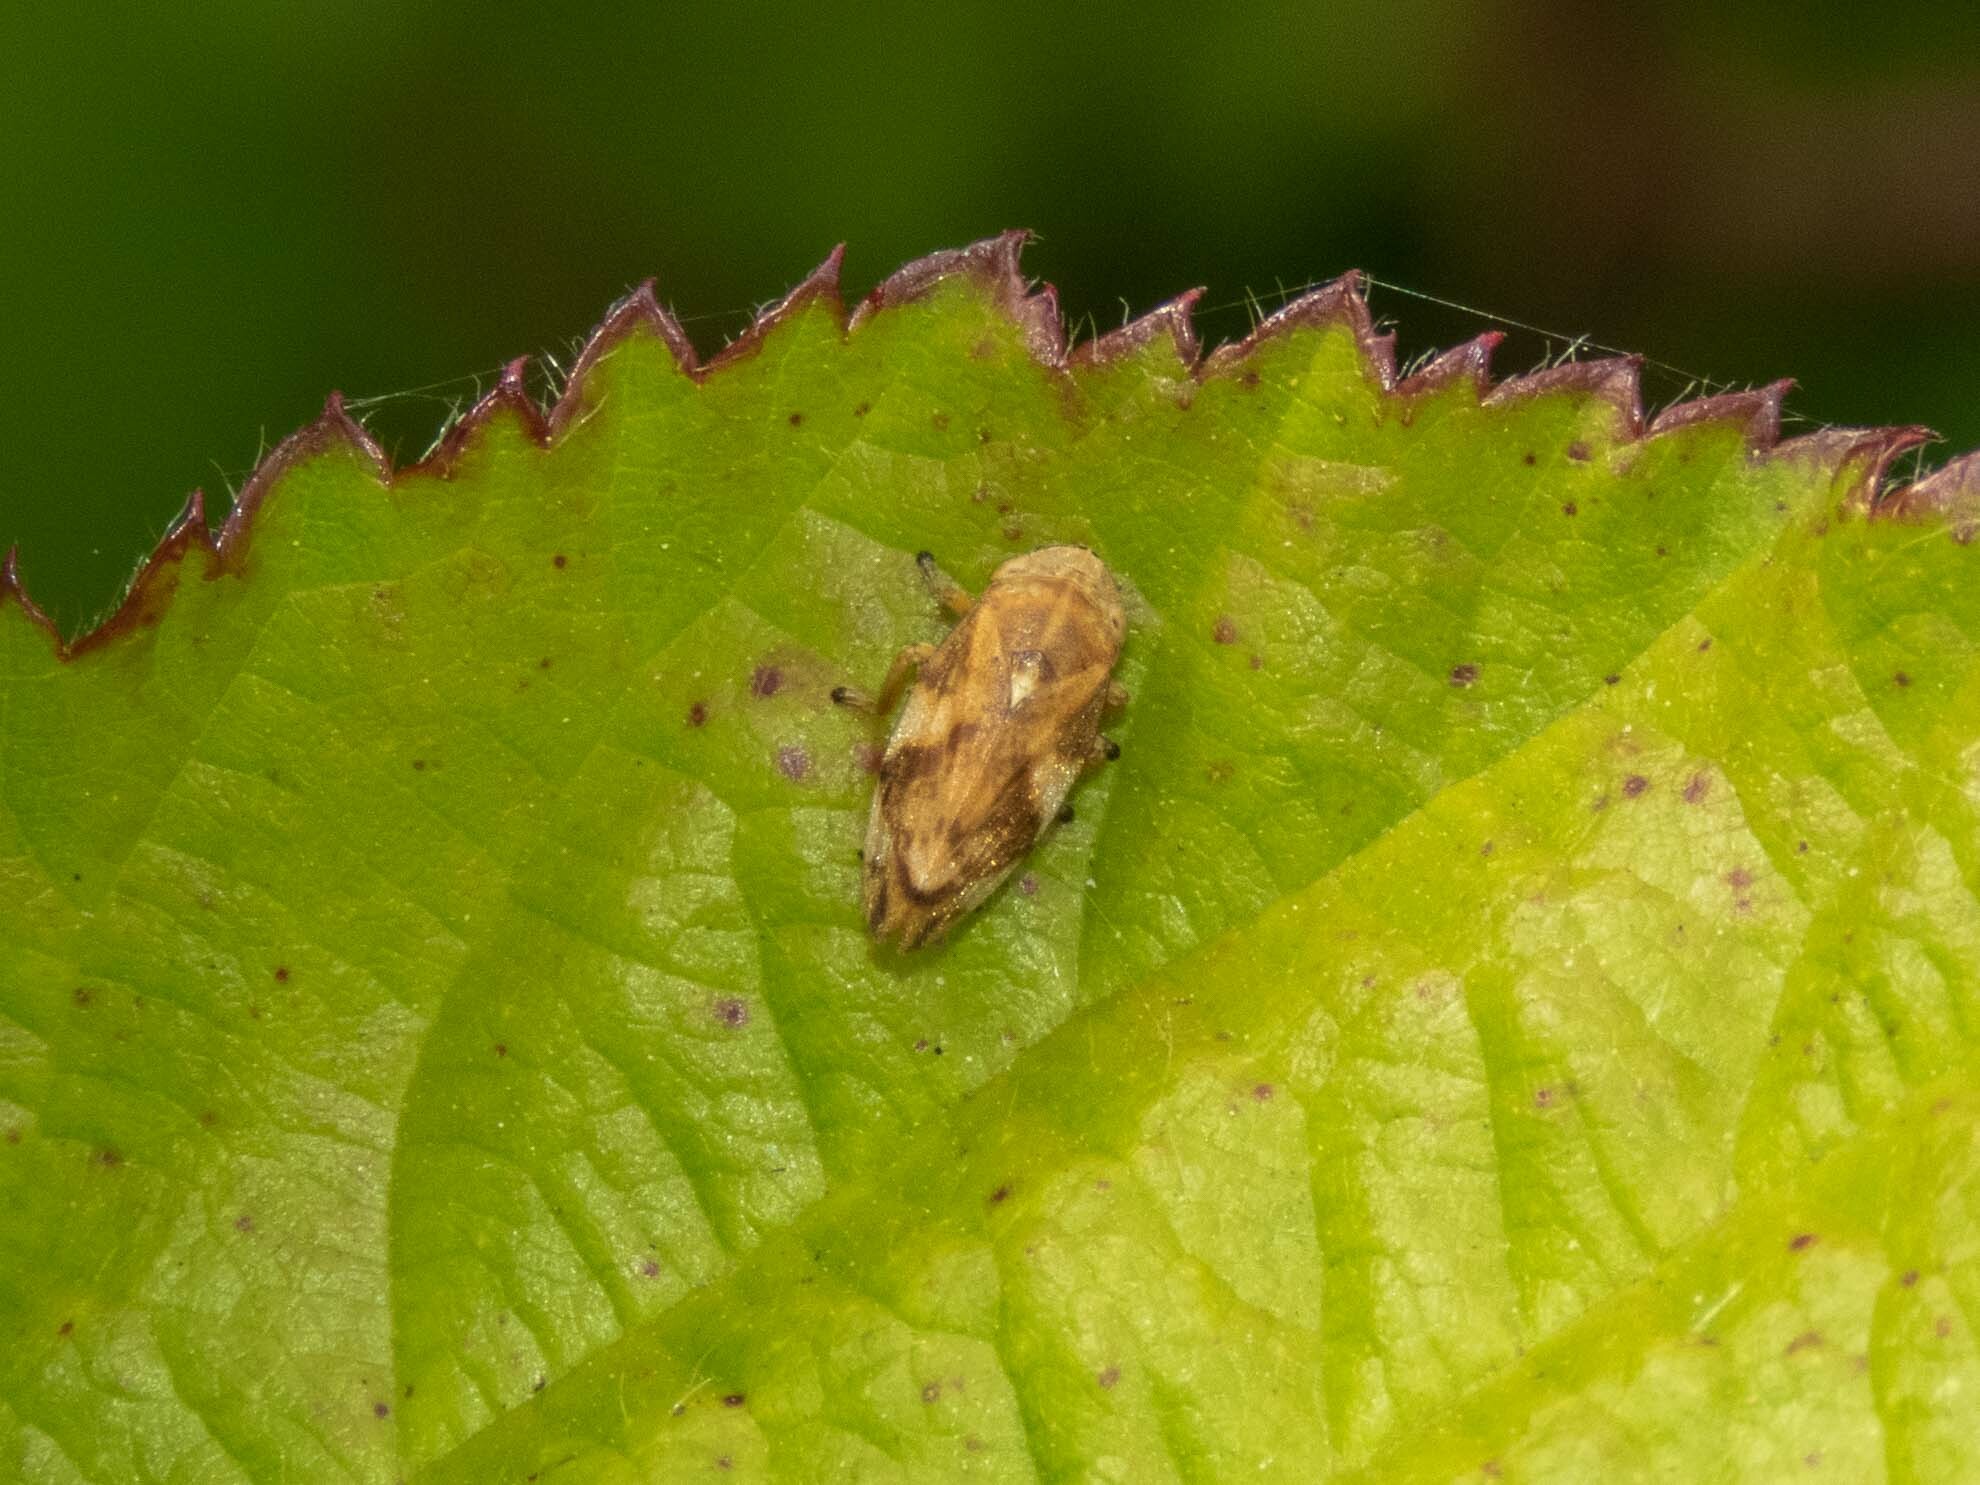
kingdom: Animalia
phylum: Arthropoda
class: Insecta
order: Hemiptera
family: Aphrophoridae
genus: Philaenus
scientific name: Philaenus spumarius
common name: Meadow spittlebug
